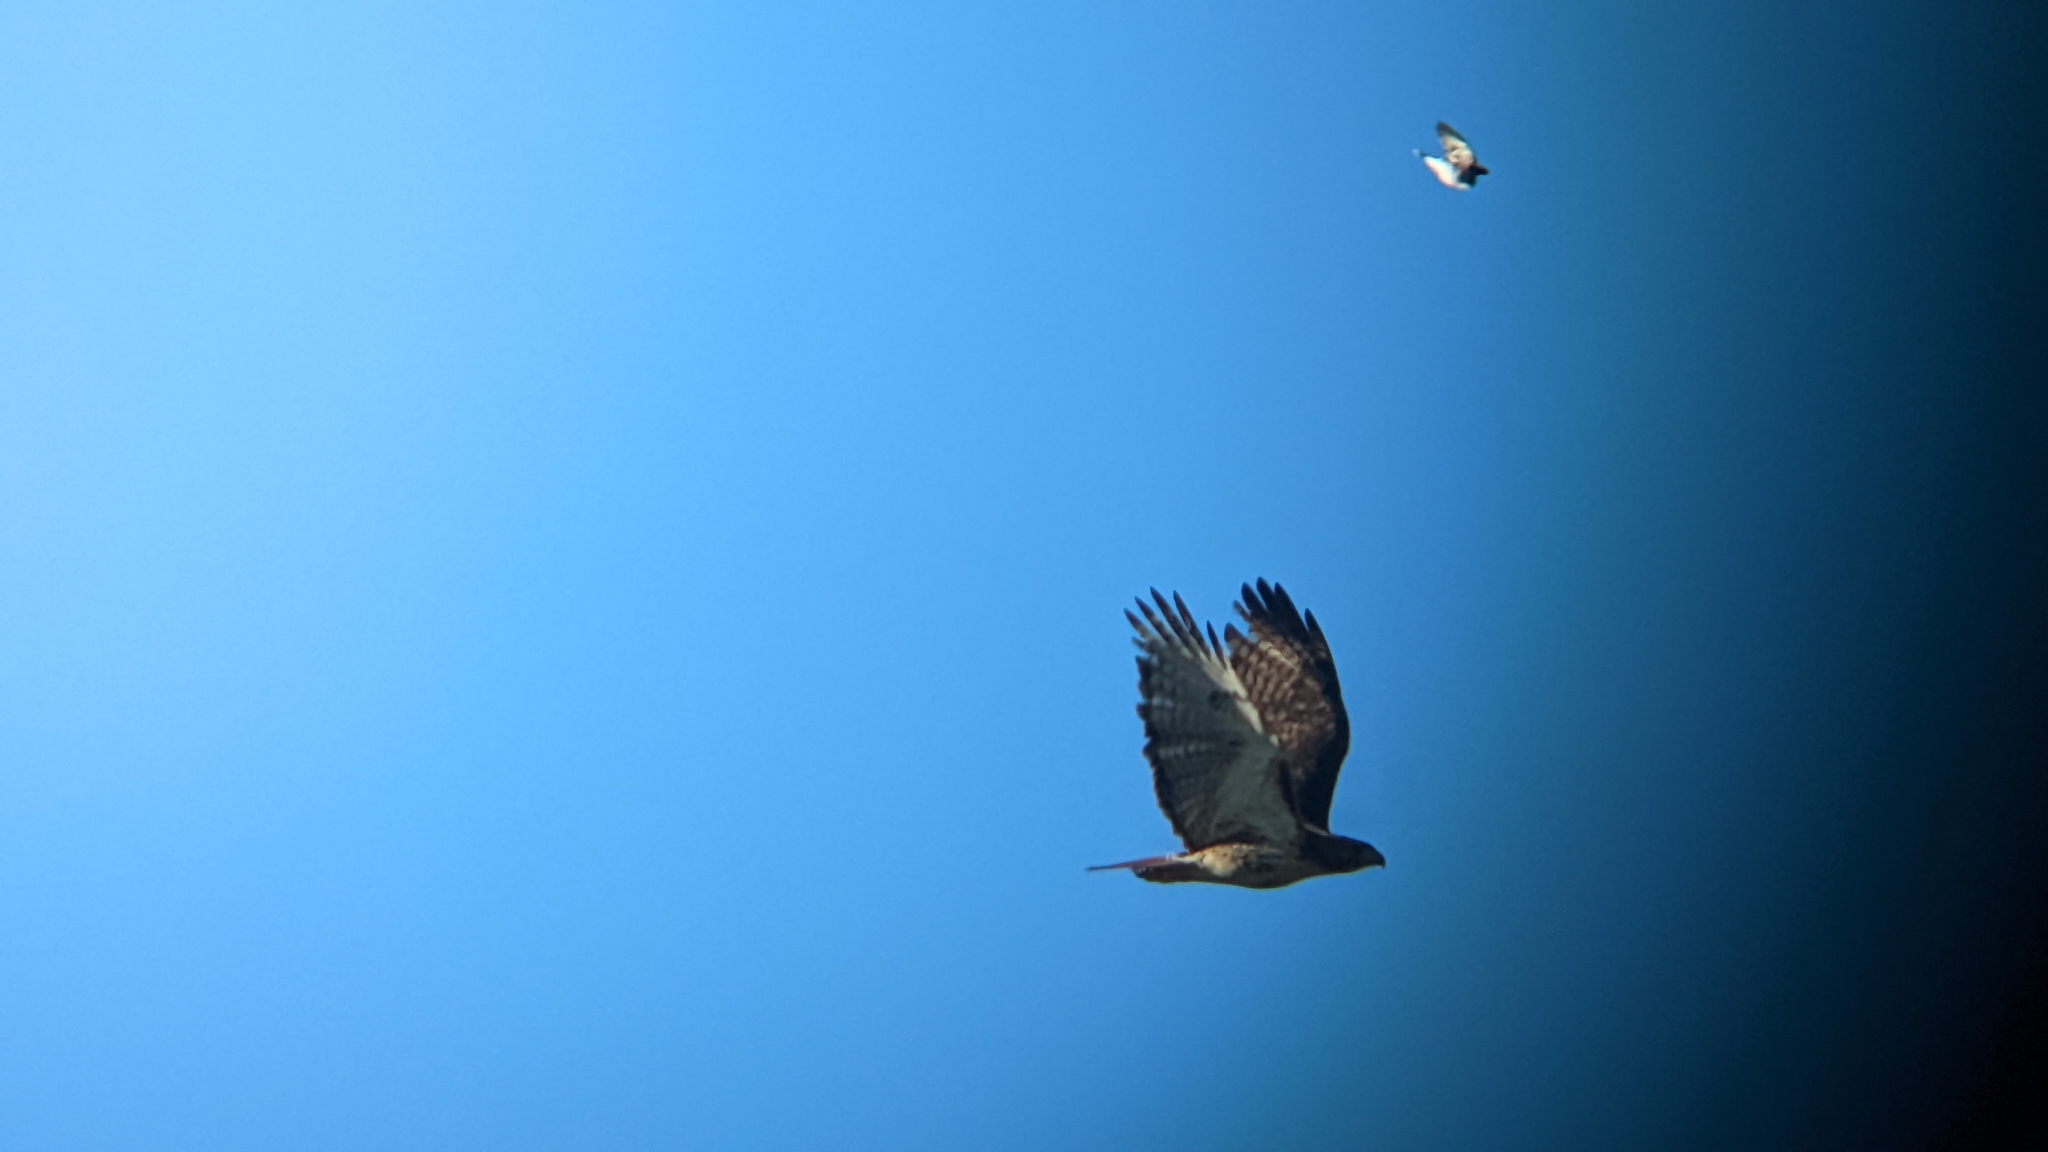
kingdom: Animalia
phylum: Chordata
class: Aves
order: Accipitriformes
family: Accipitridae
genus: Buteo
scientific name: Buteo jamaicensis
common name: Red-tailed hawk
